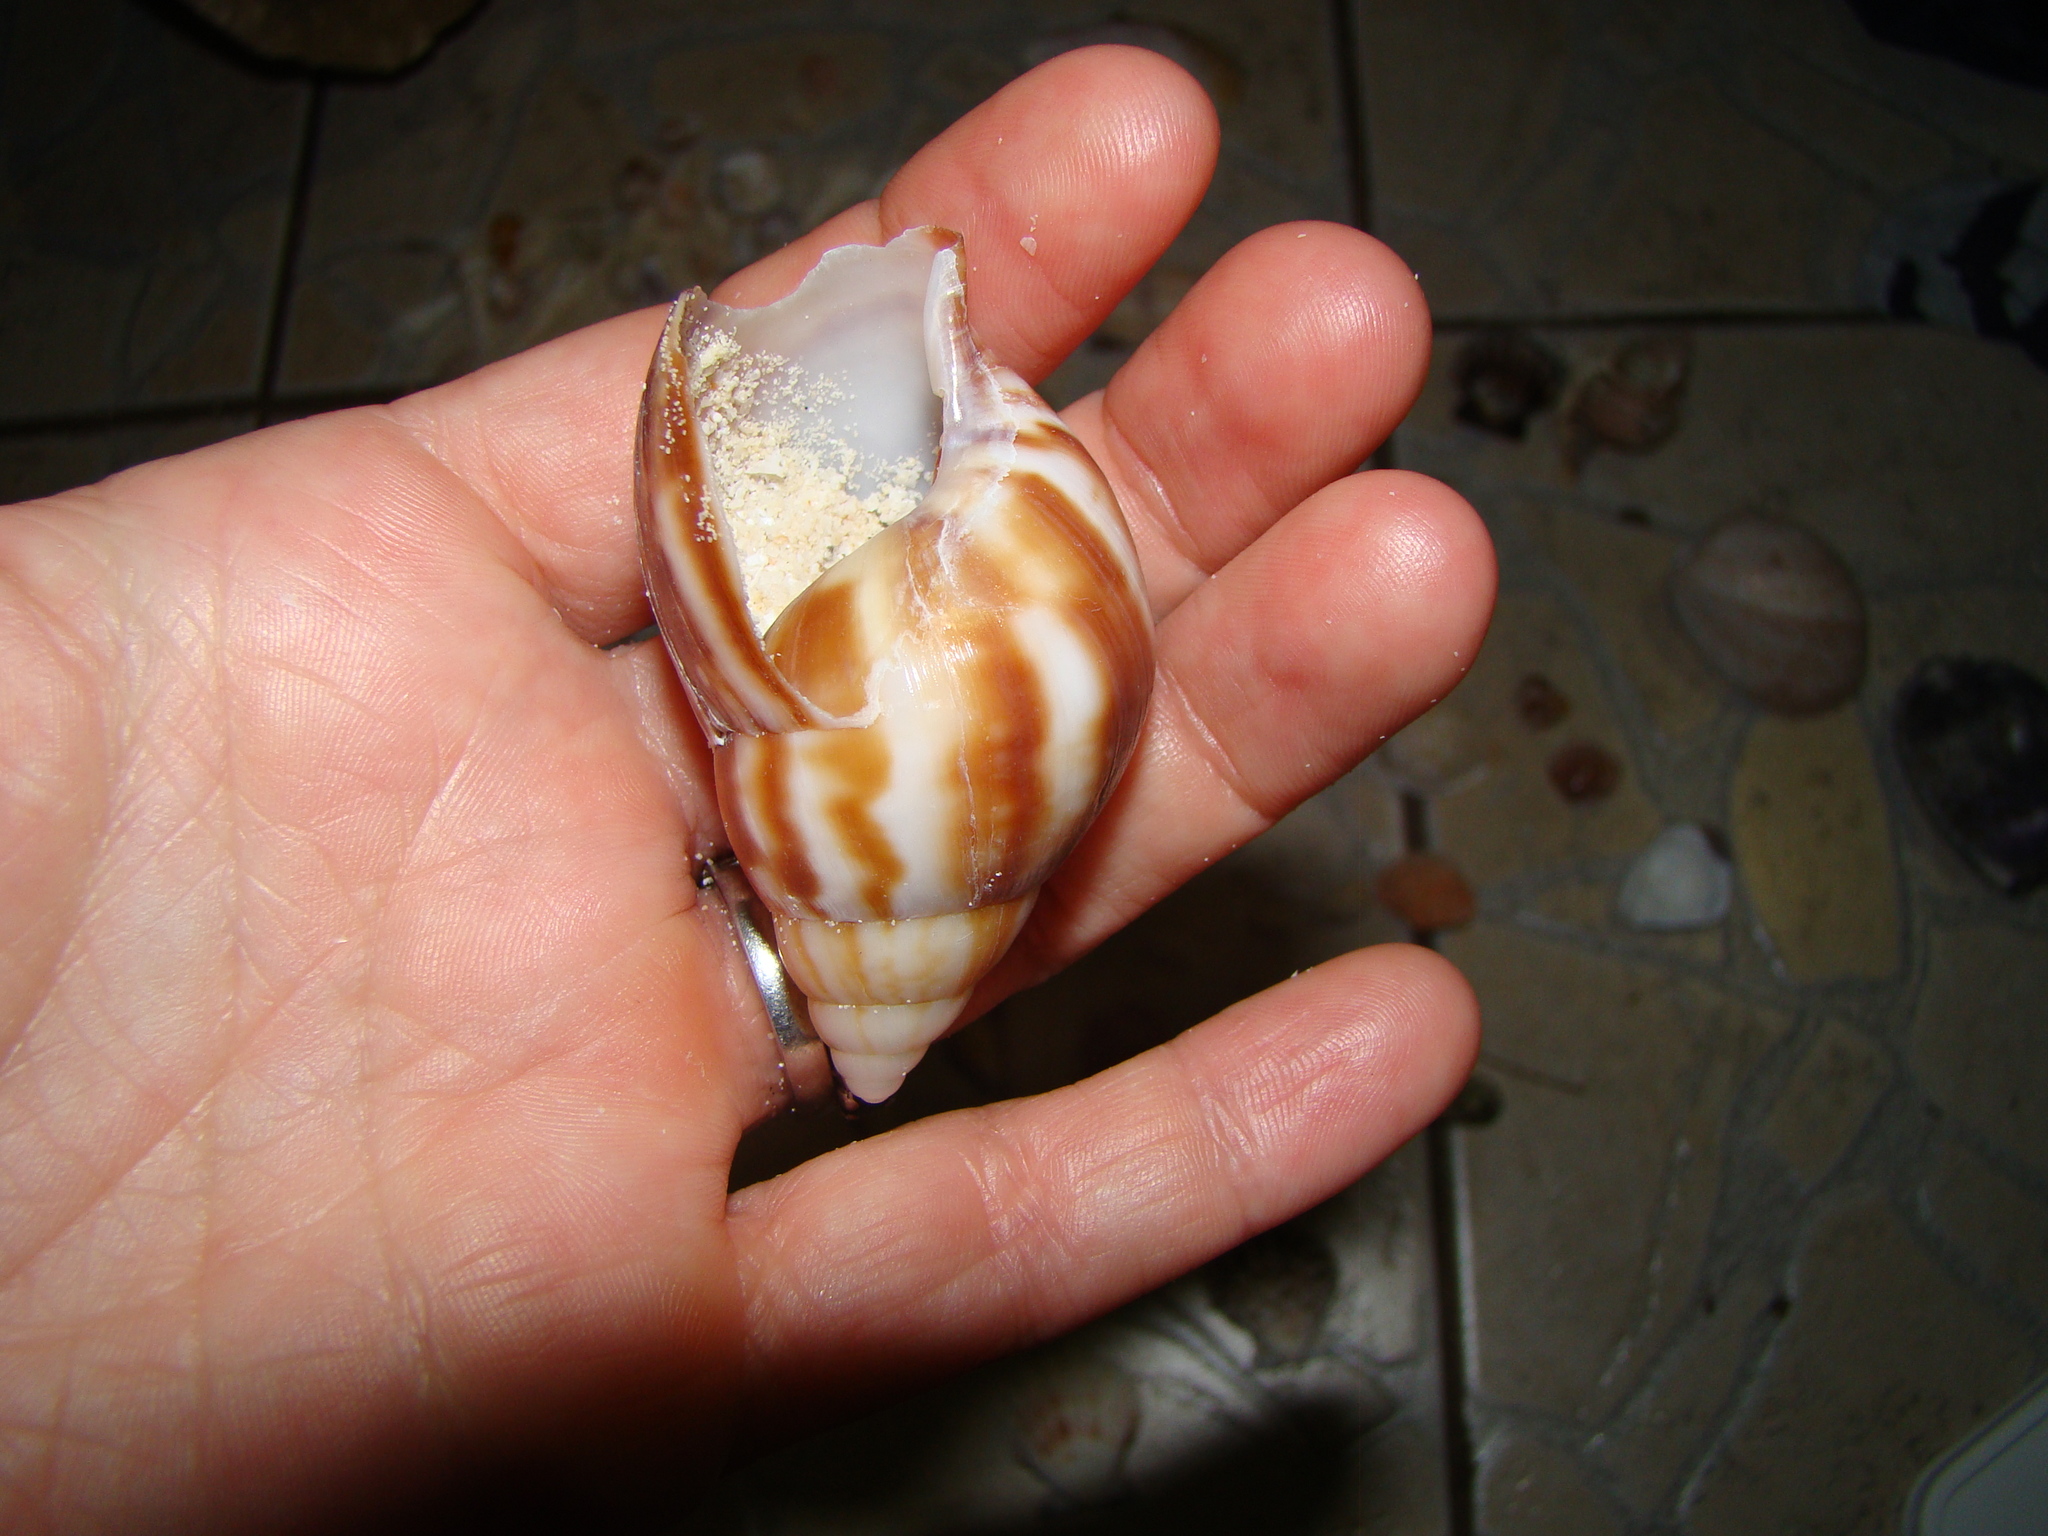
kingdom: Animalia
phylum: Mollusca
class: Gastropoda
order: Stylommatophora
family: Achatinidae
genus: Lissachatina
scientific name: Lissachatina fulica
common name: Giant african snail
